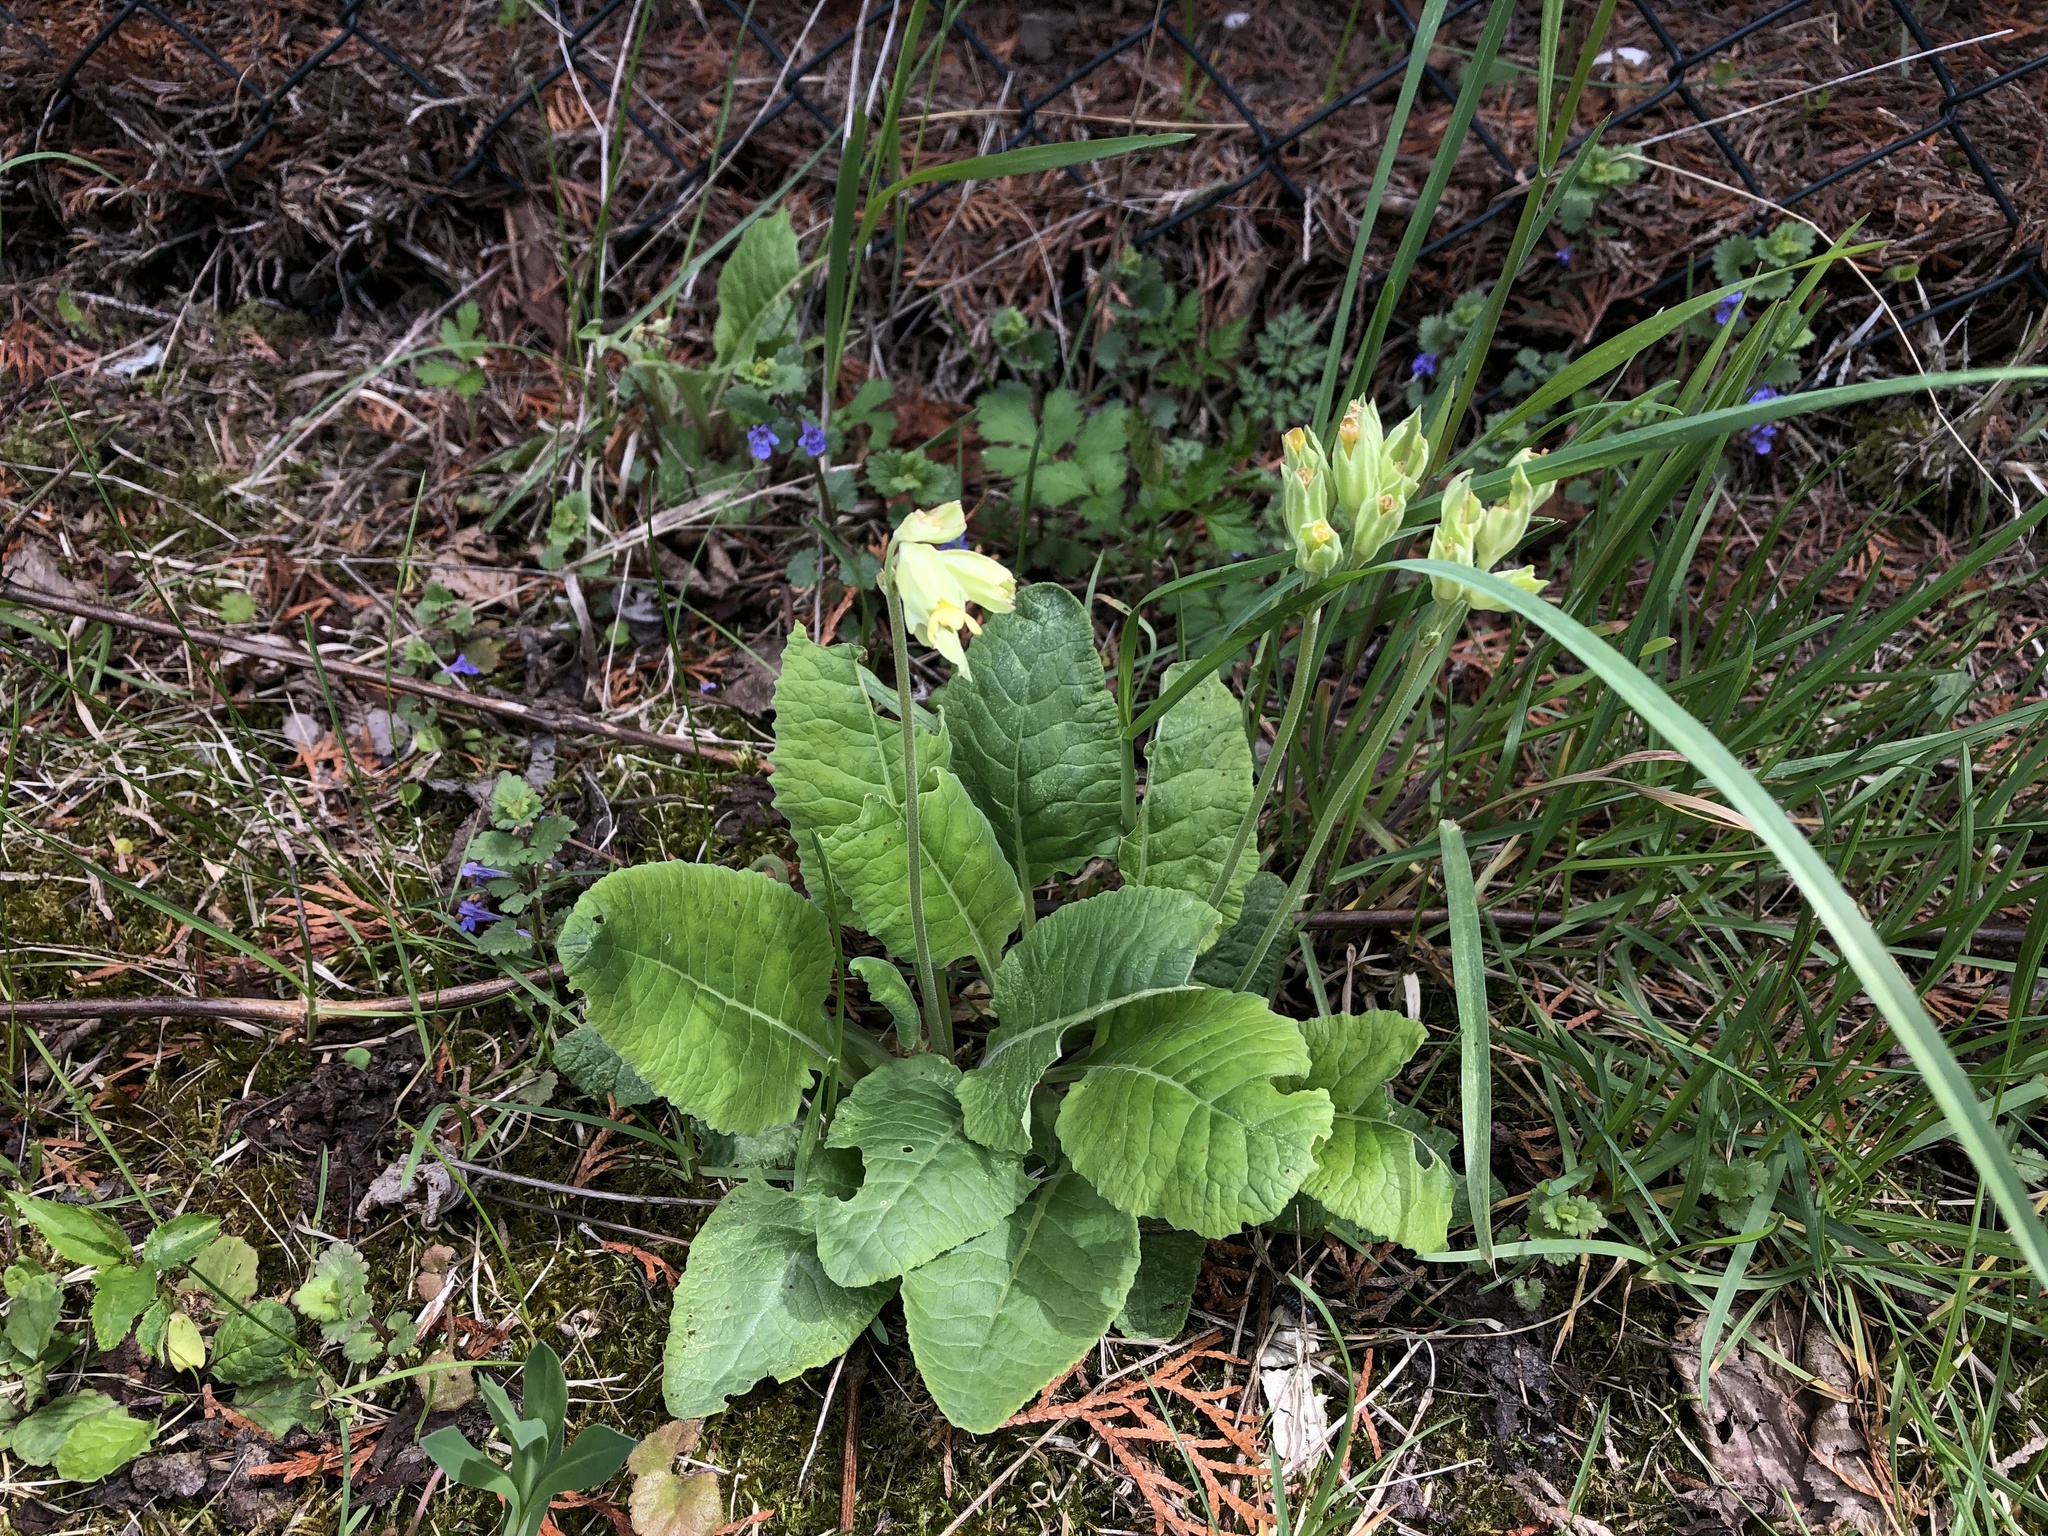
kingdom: Plantae
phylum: Tracheophyta
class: Magnoliopsida
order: Ericales
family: Primulaceae
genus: Primula
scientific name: Primula veris
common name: Cowslip
